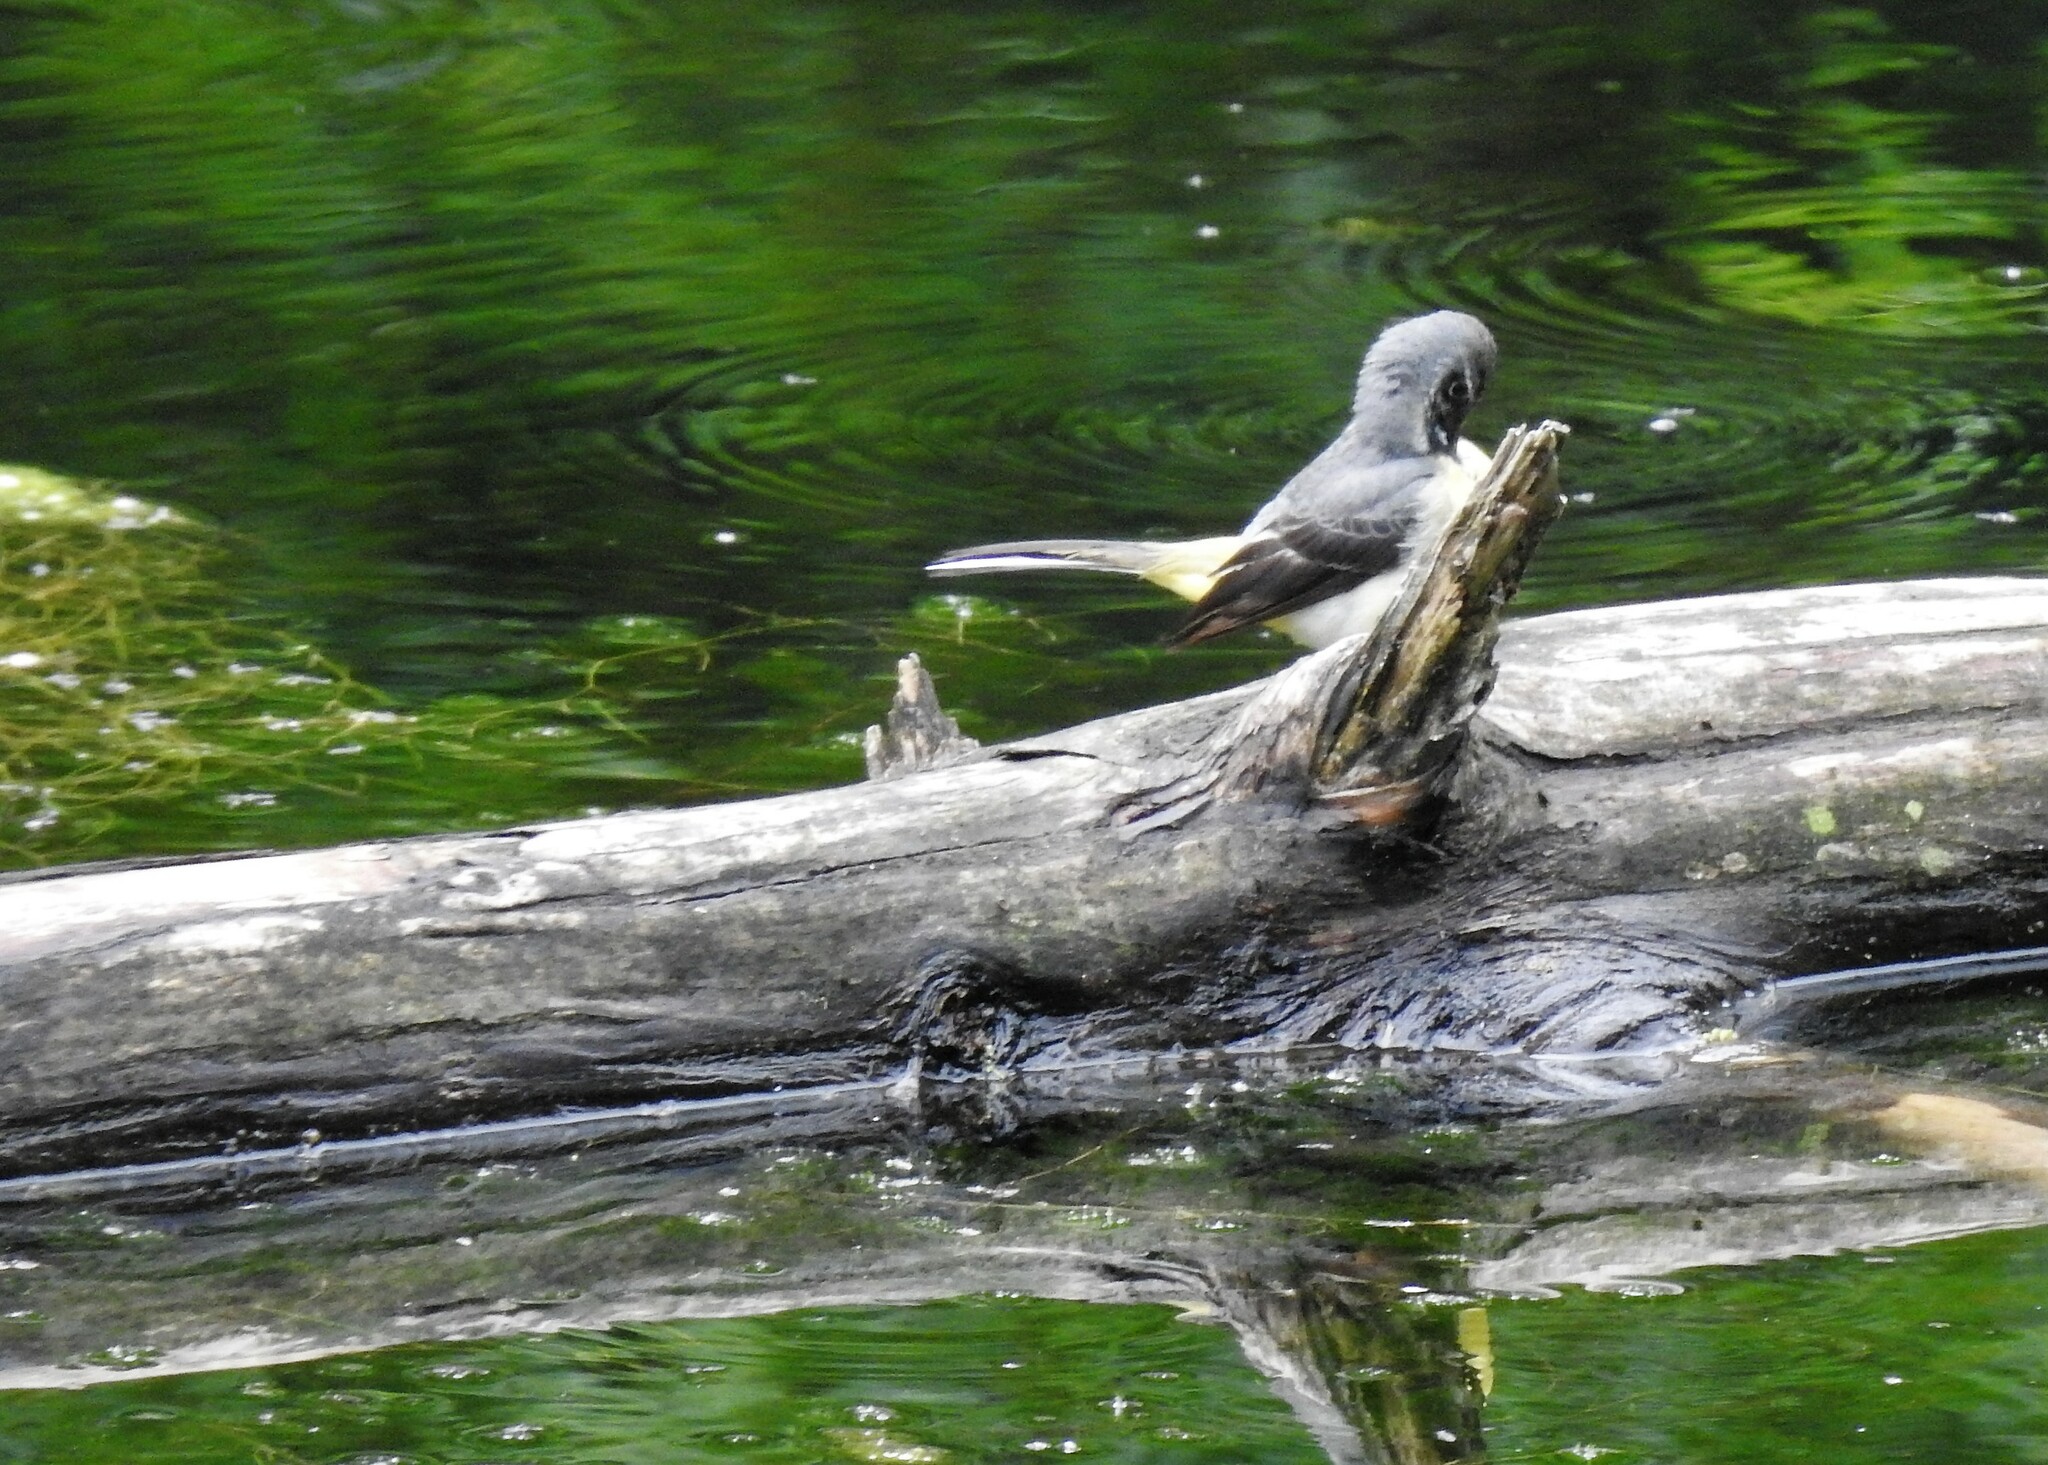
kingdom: Animalia
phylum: Chordata
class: Aves
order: Passeriformes
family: Motacillidae
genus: Motacilla
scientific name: Motacilla cinerea
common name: Grey wagtail
